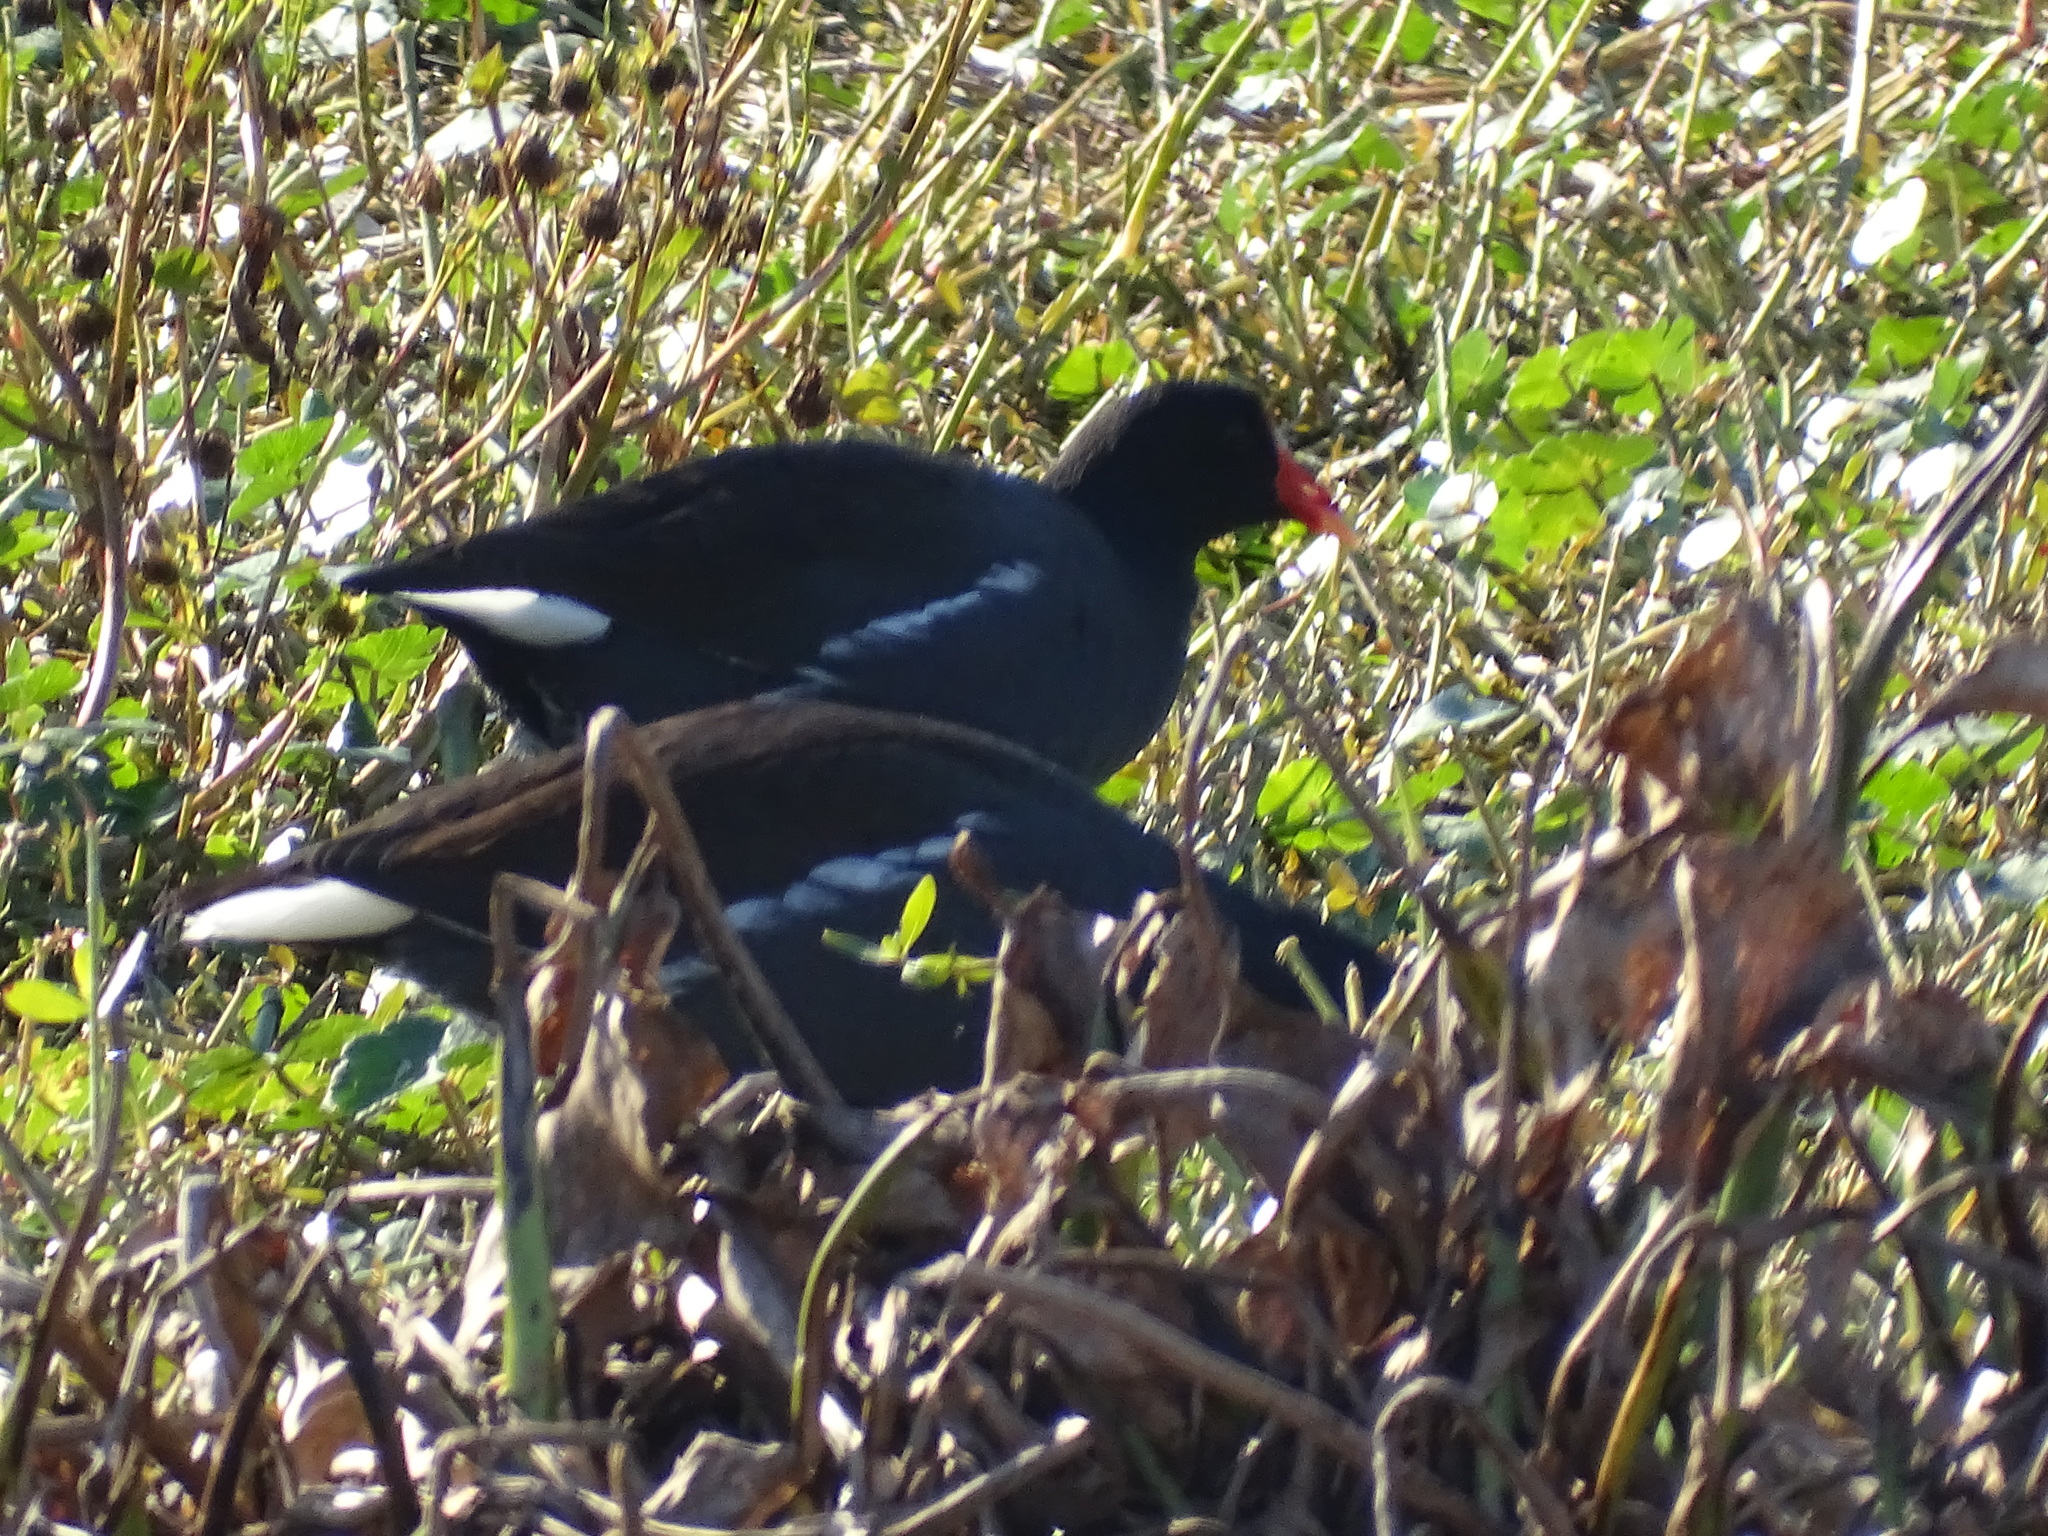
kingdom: Animalia
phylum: Chordata
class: Aves
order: Gruiformes
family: Rallidae
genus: Gallinula
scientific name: Gallinula chloropus
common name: Common moorhen
